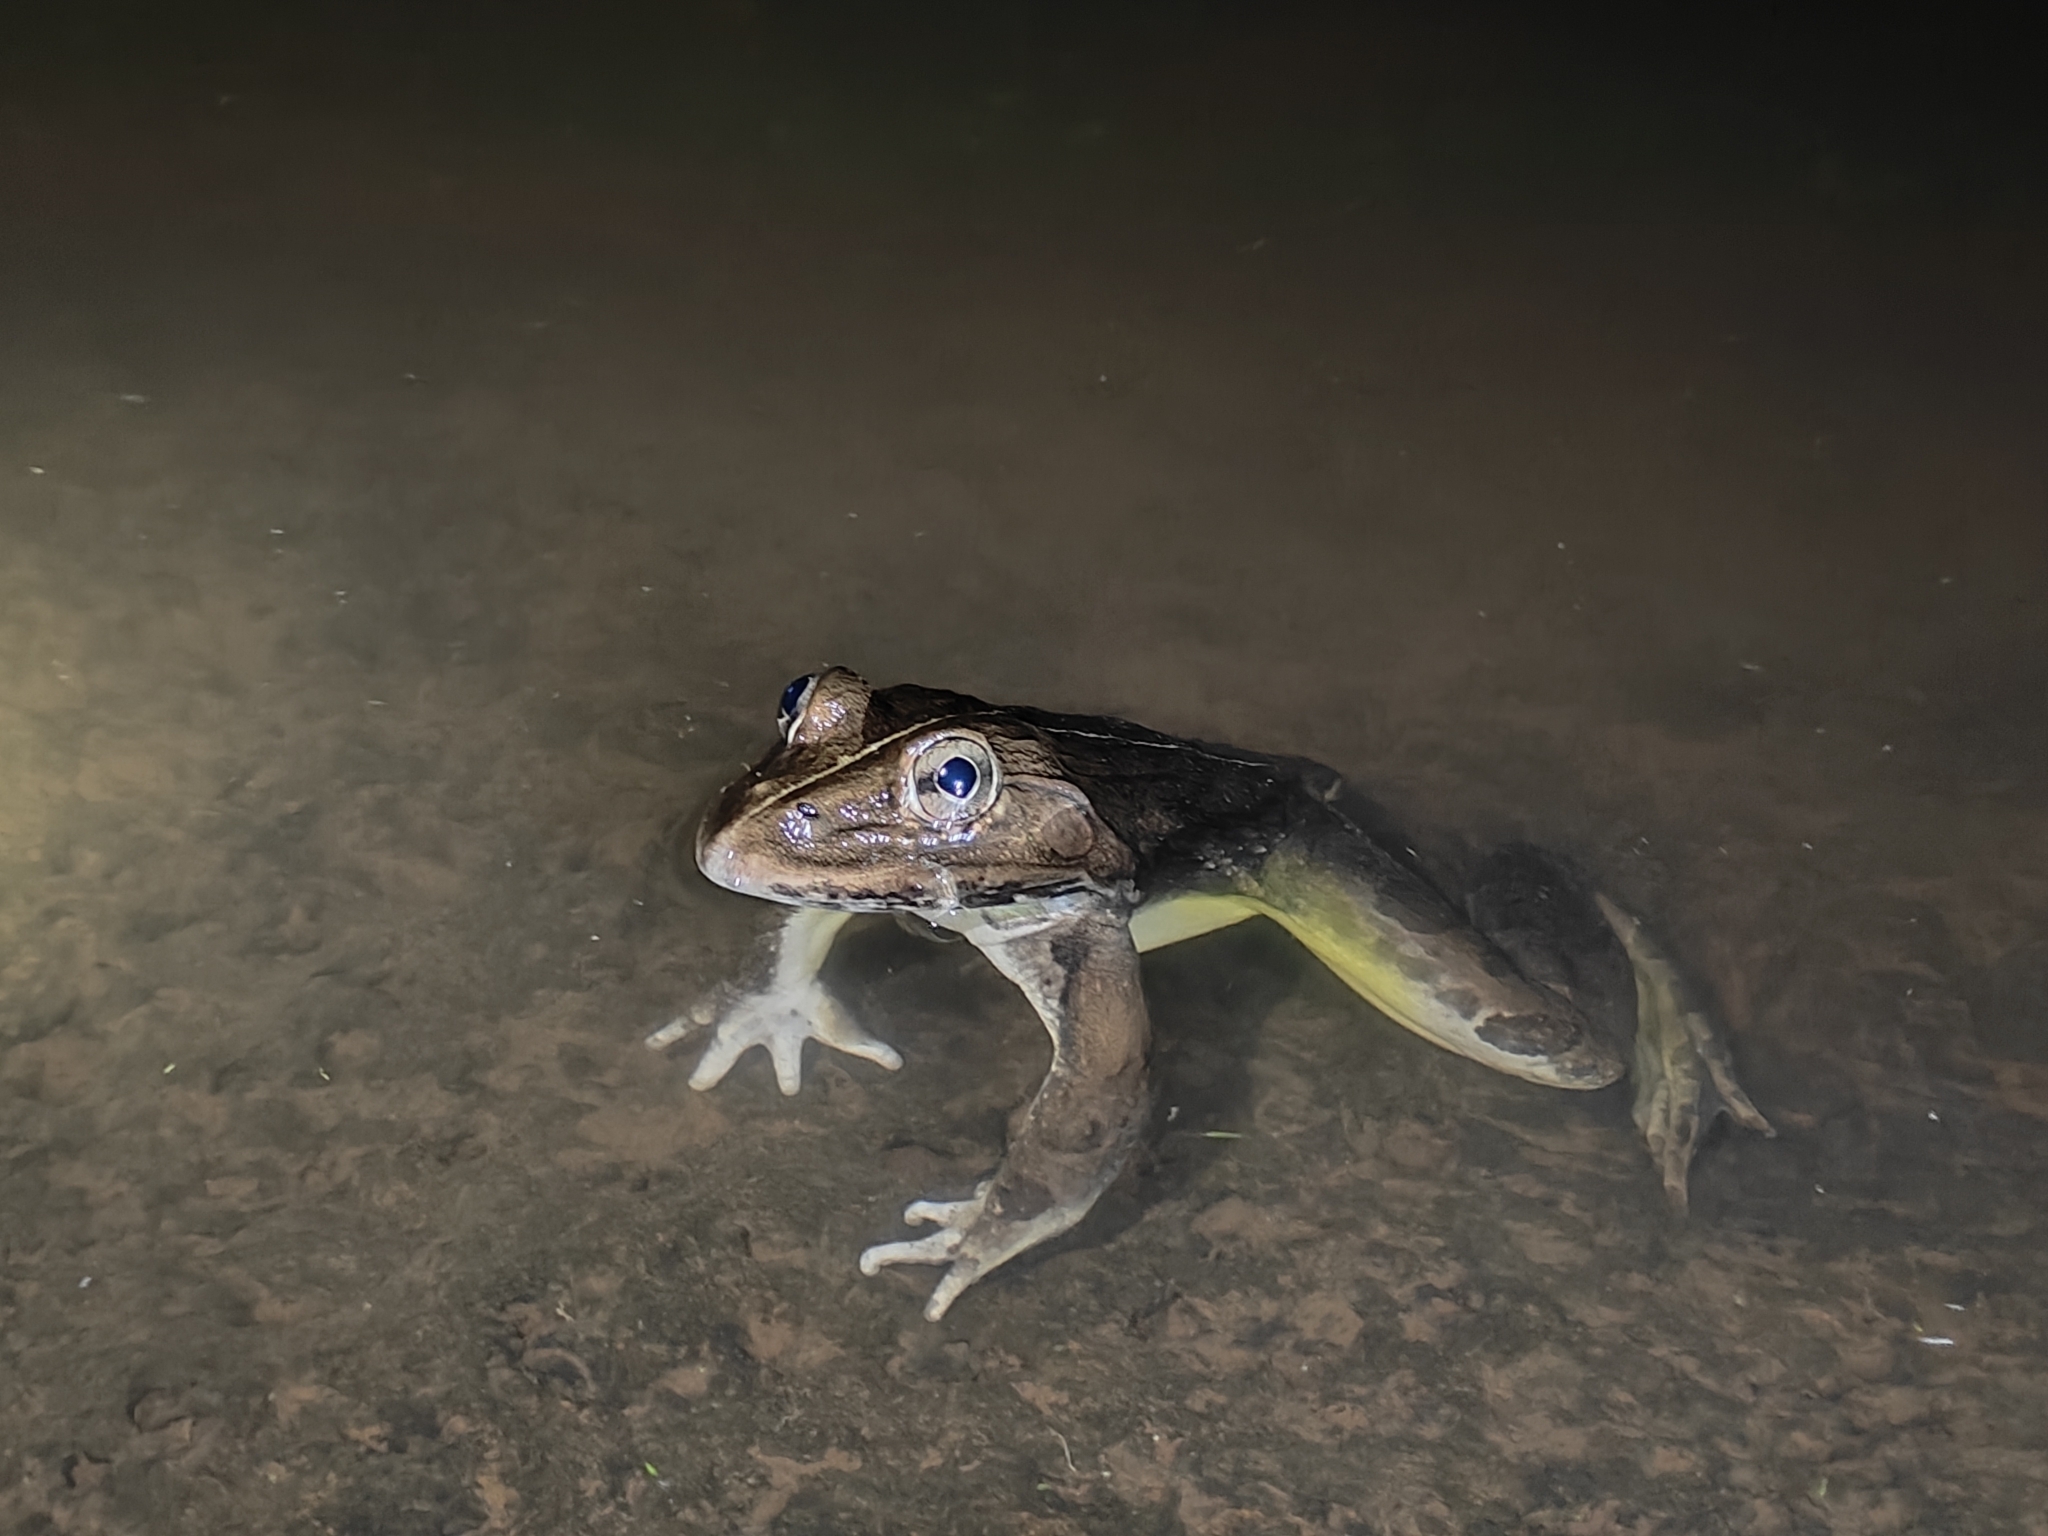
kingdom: Animalia
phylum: Chordata
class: Amphibia
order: Anura
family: Dicroglossidae
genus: Hoplobatrachus
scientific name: Hoplobatrachus tigerinus
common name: Indian bullfrog
